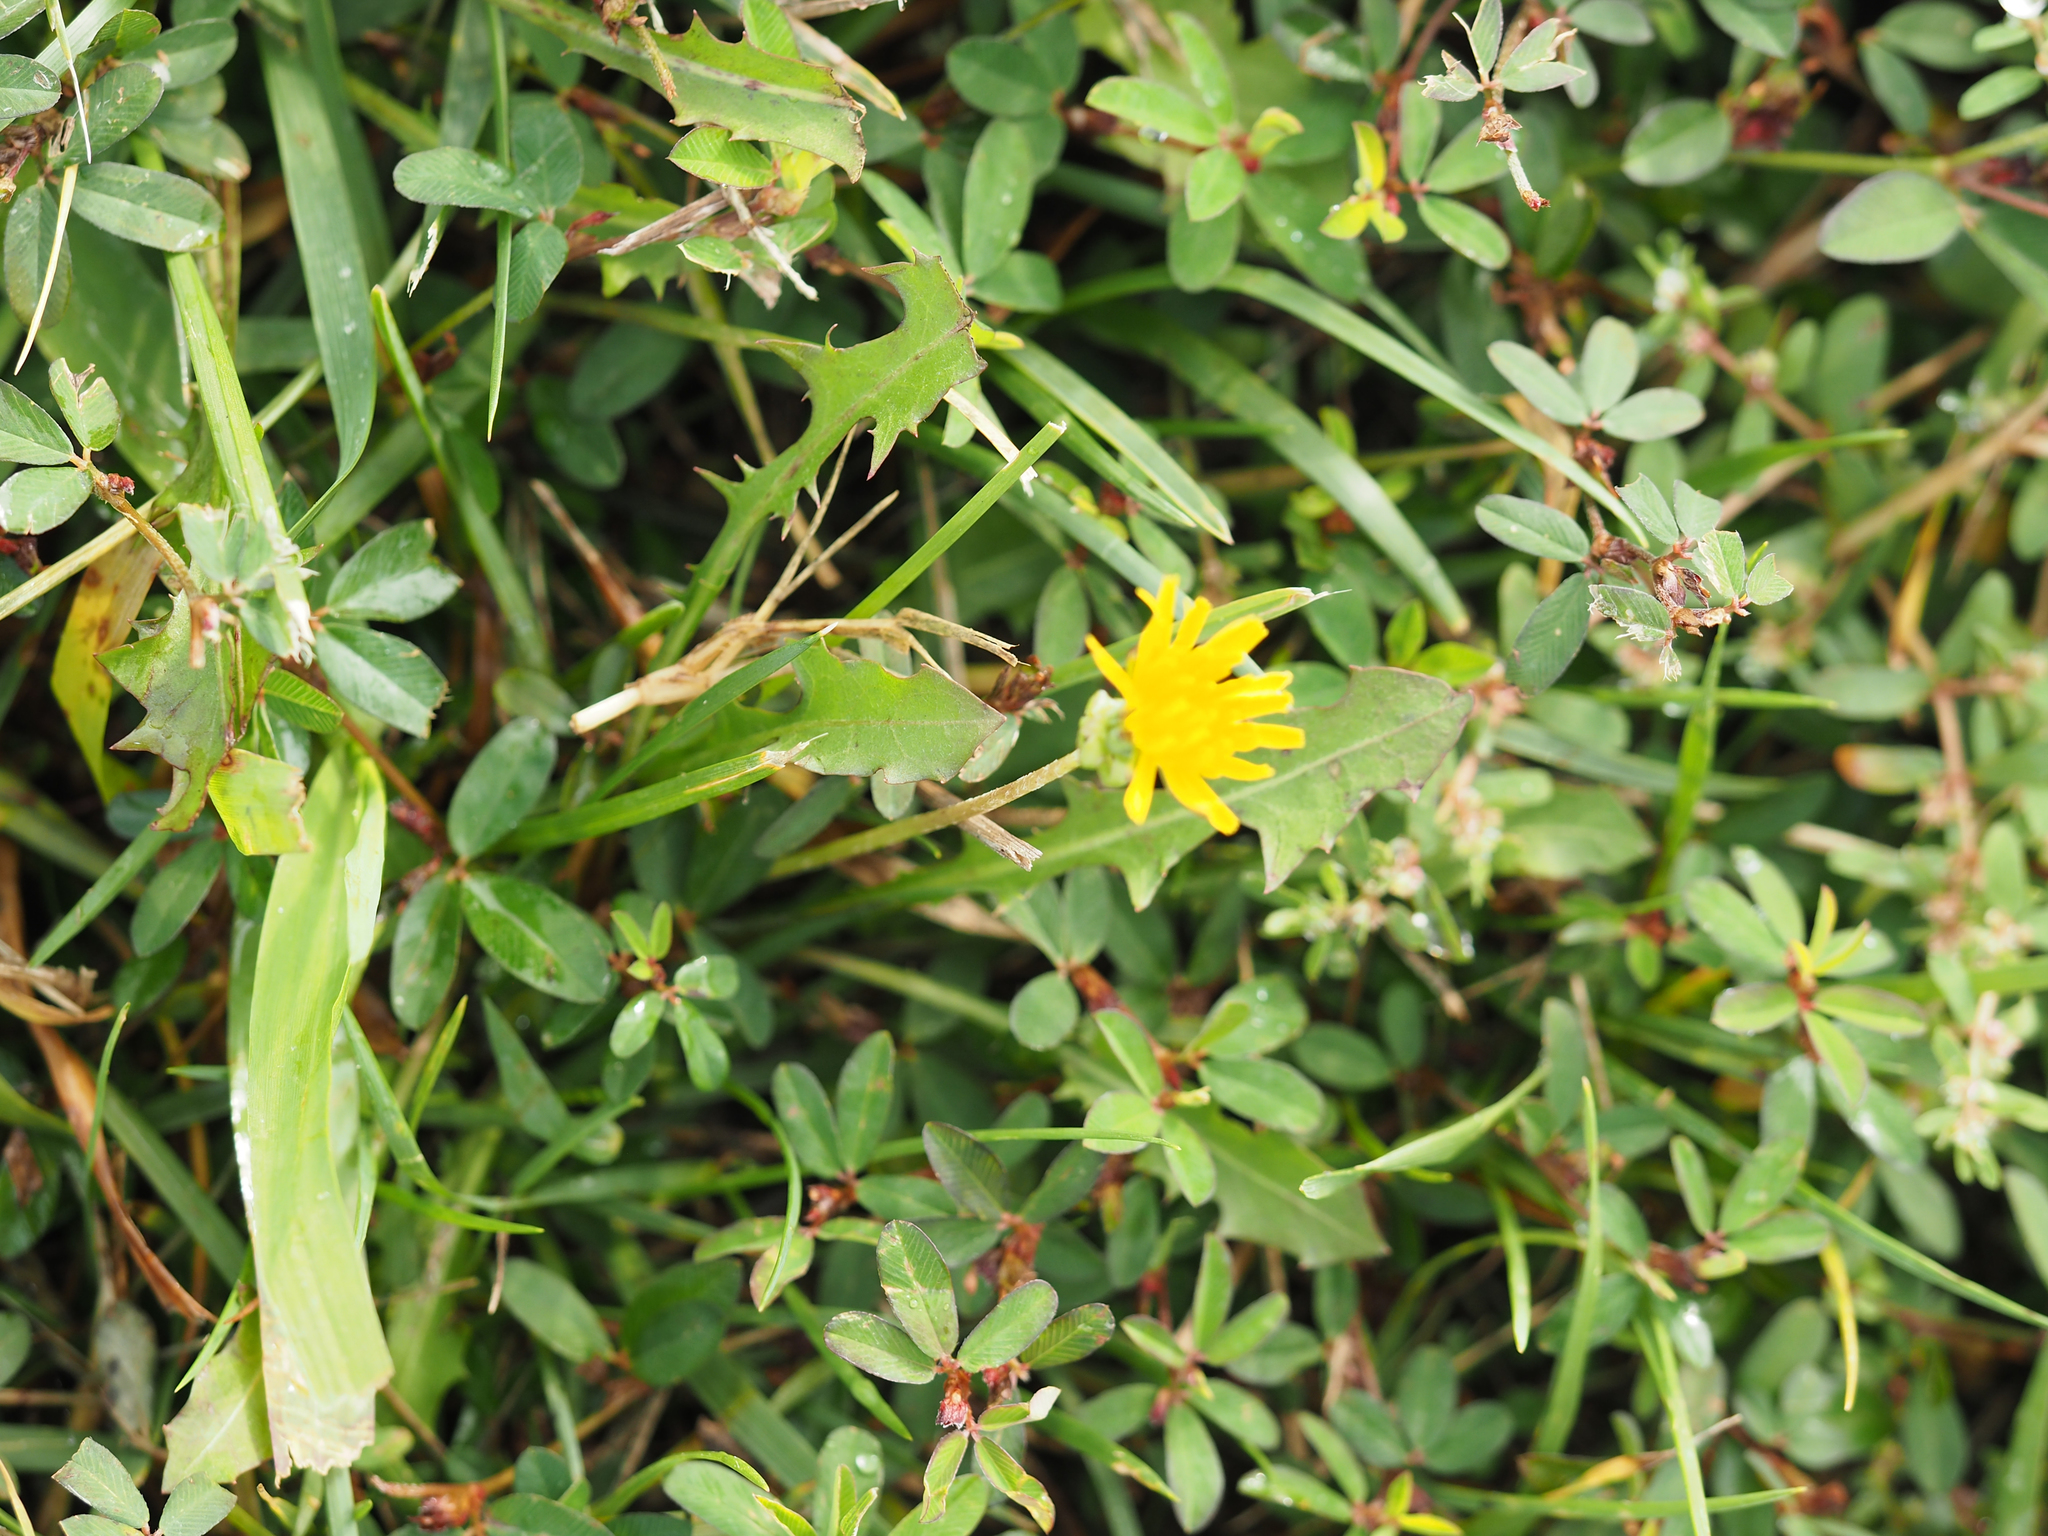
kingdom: Plantae
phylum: Tracheophyta
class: Magnoliopsida
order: Asterales
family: Asteraceae
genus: Taraxacum
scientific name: Taraxacum officinale
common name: Common dandelion
